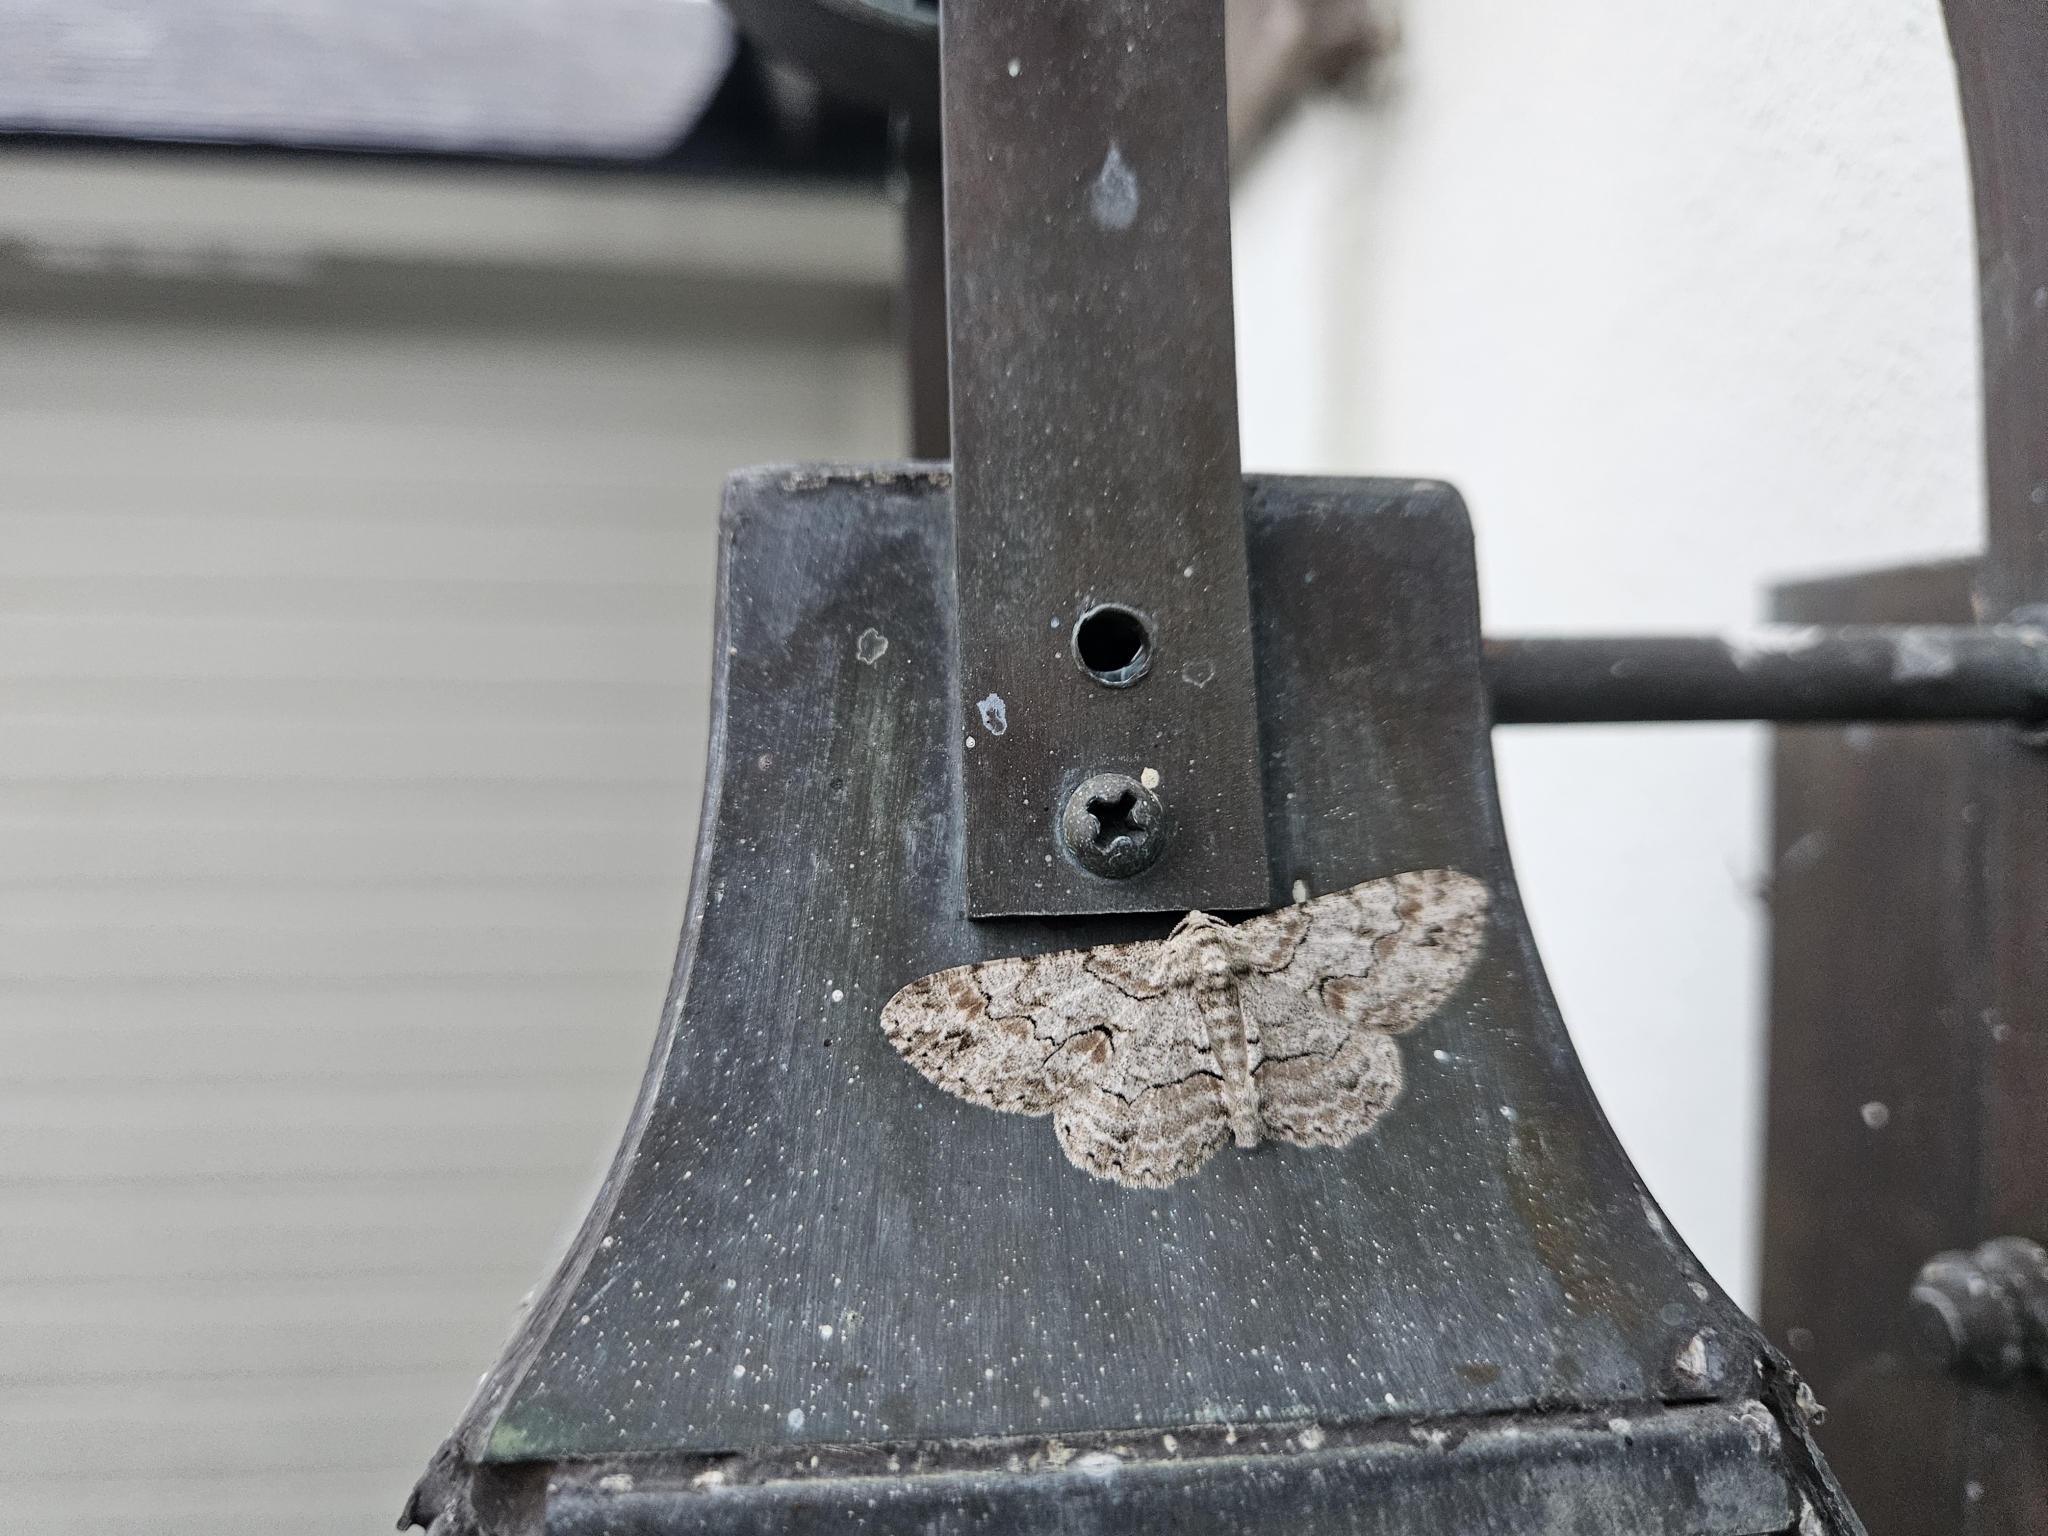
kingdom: Animalia
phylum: Arthropoda
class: Insecta
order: Lepidoptera
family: Geometridae
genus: Iridopsis
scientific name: Iridopsis defectaria
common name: Brown-shaded gray
